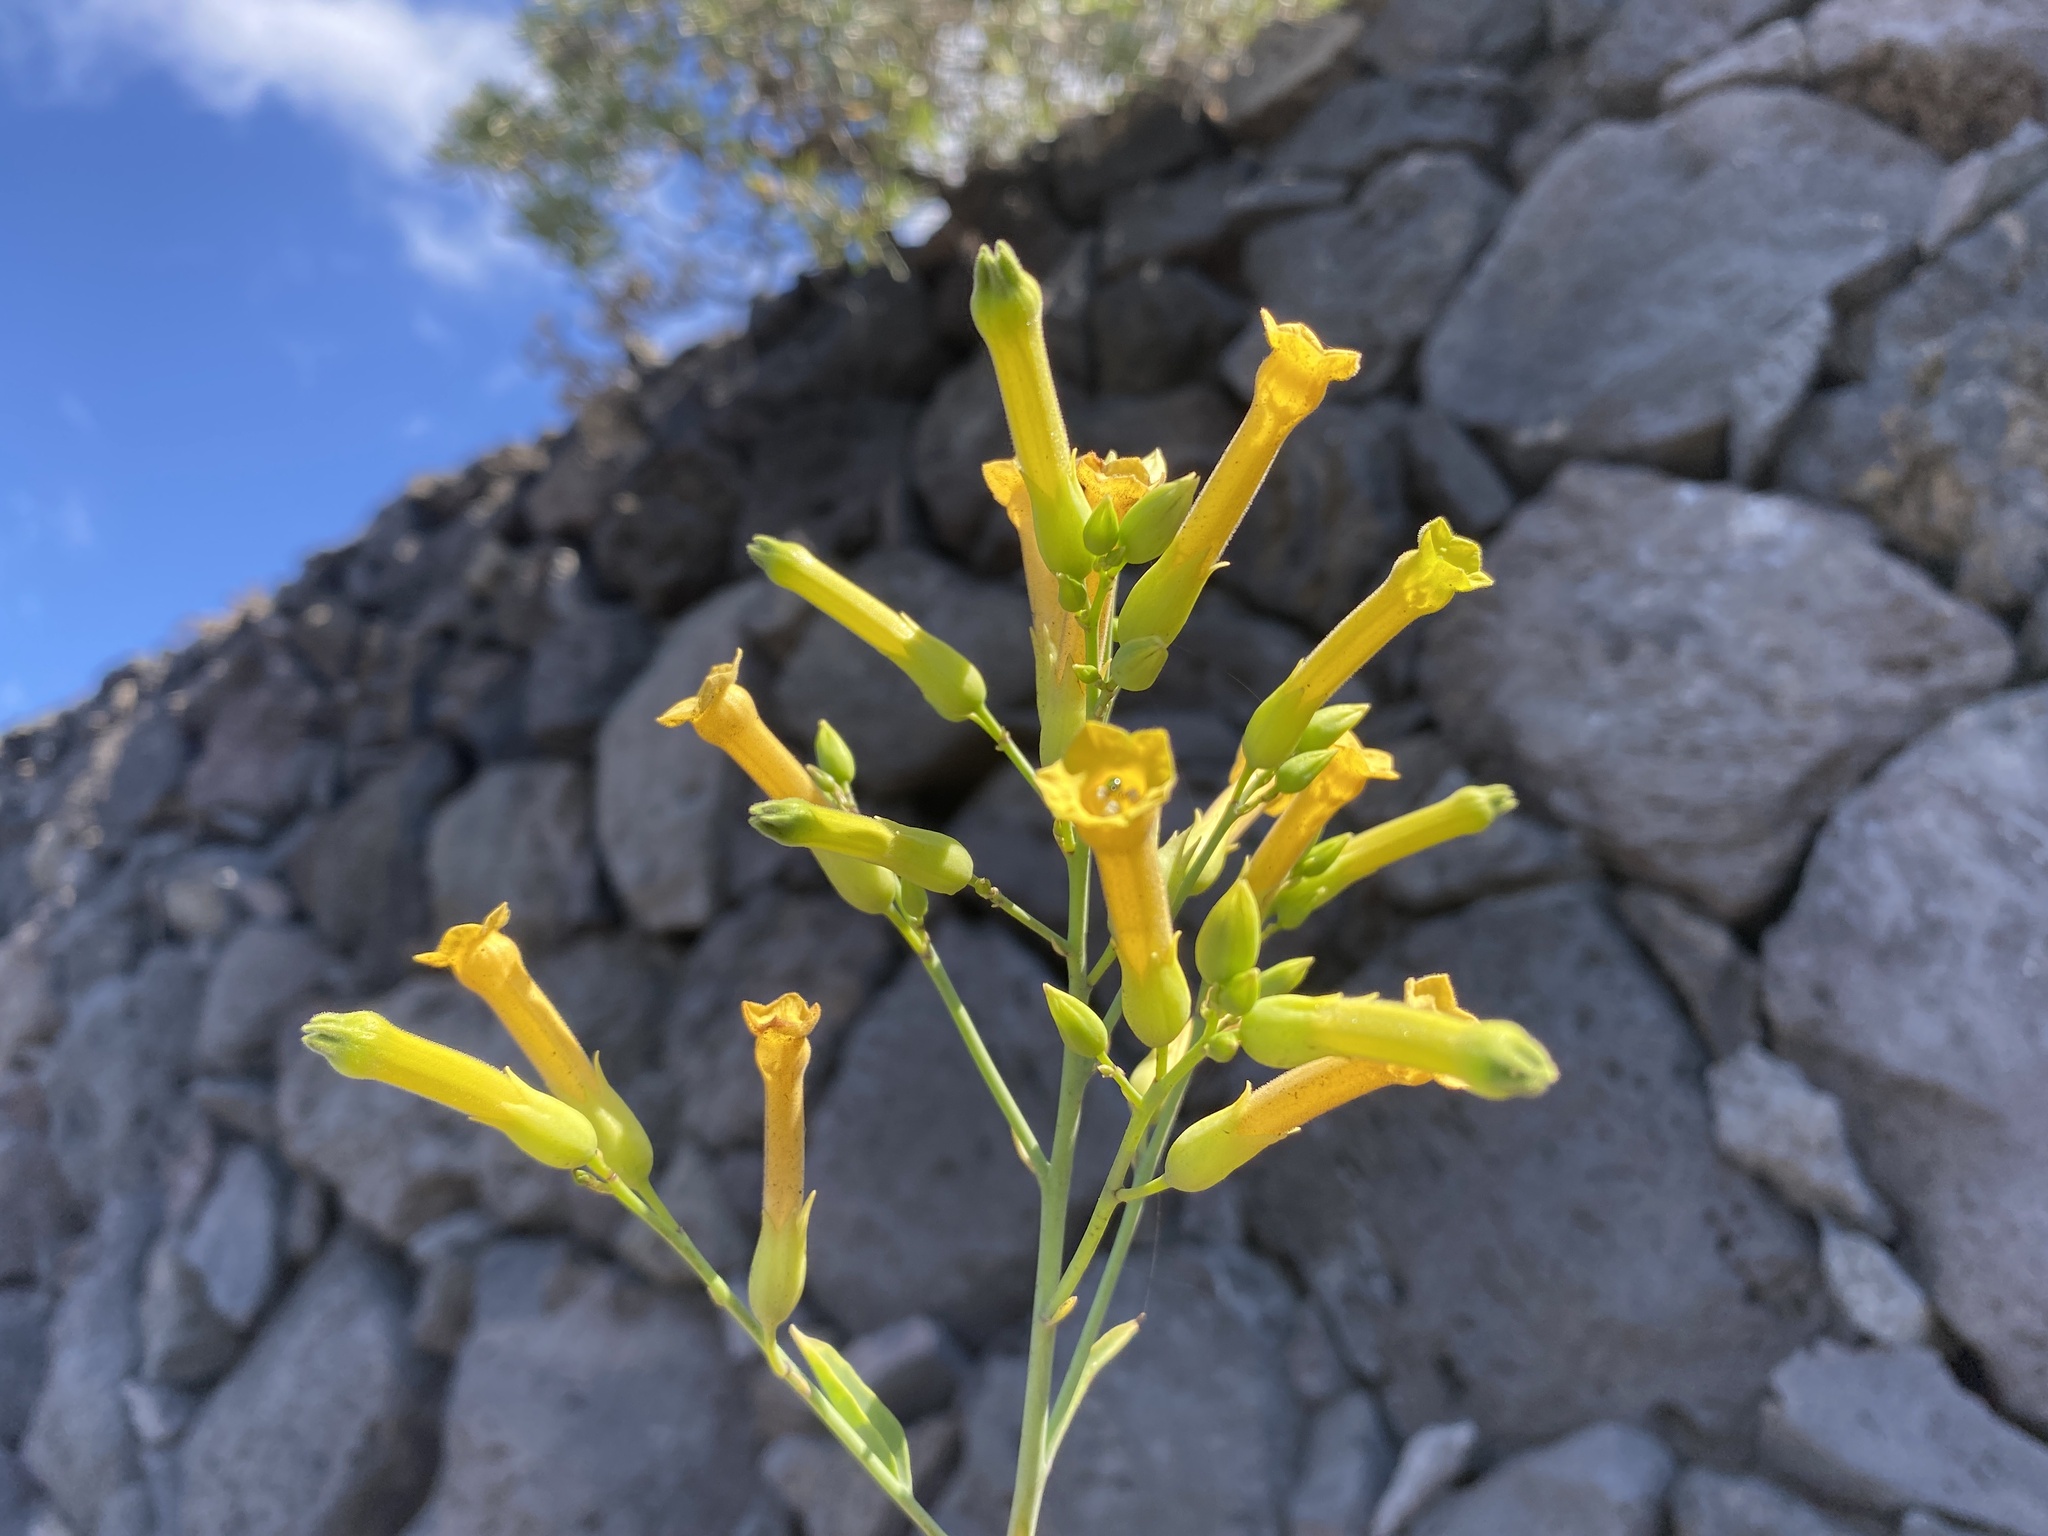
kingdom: Plantae
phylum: Tracheophyta
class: Magnoliopsida
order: Solanales
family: Solanaceae
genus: Nicotiana
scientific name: Nicotiana glauca
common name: Tree tobacco
